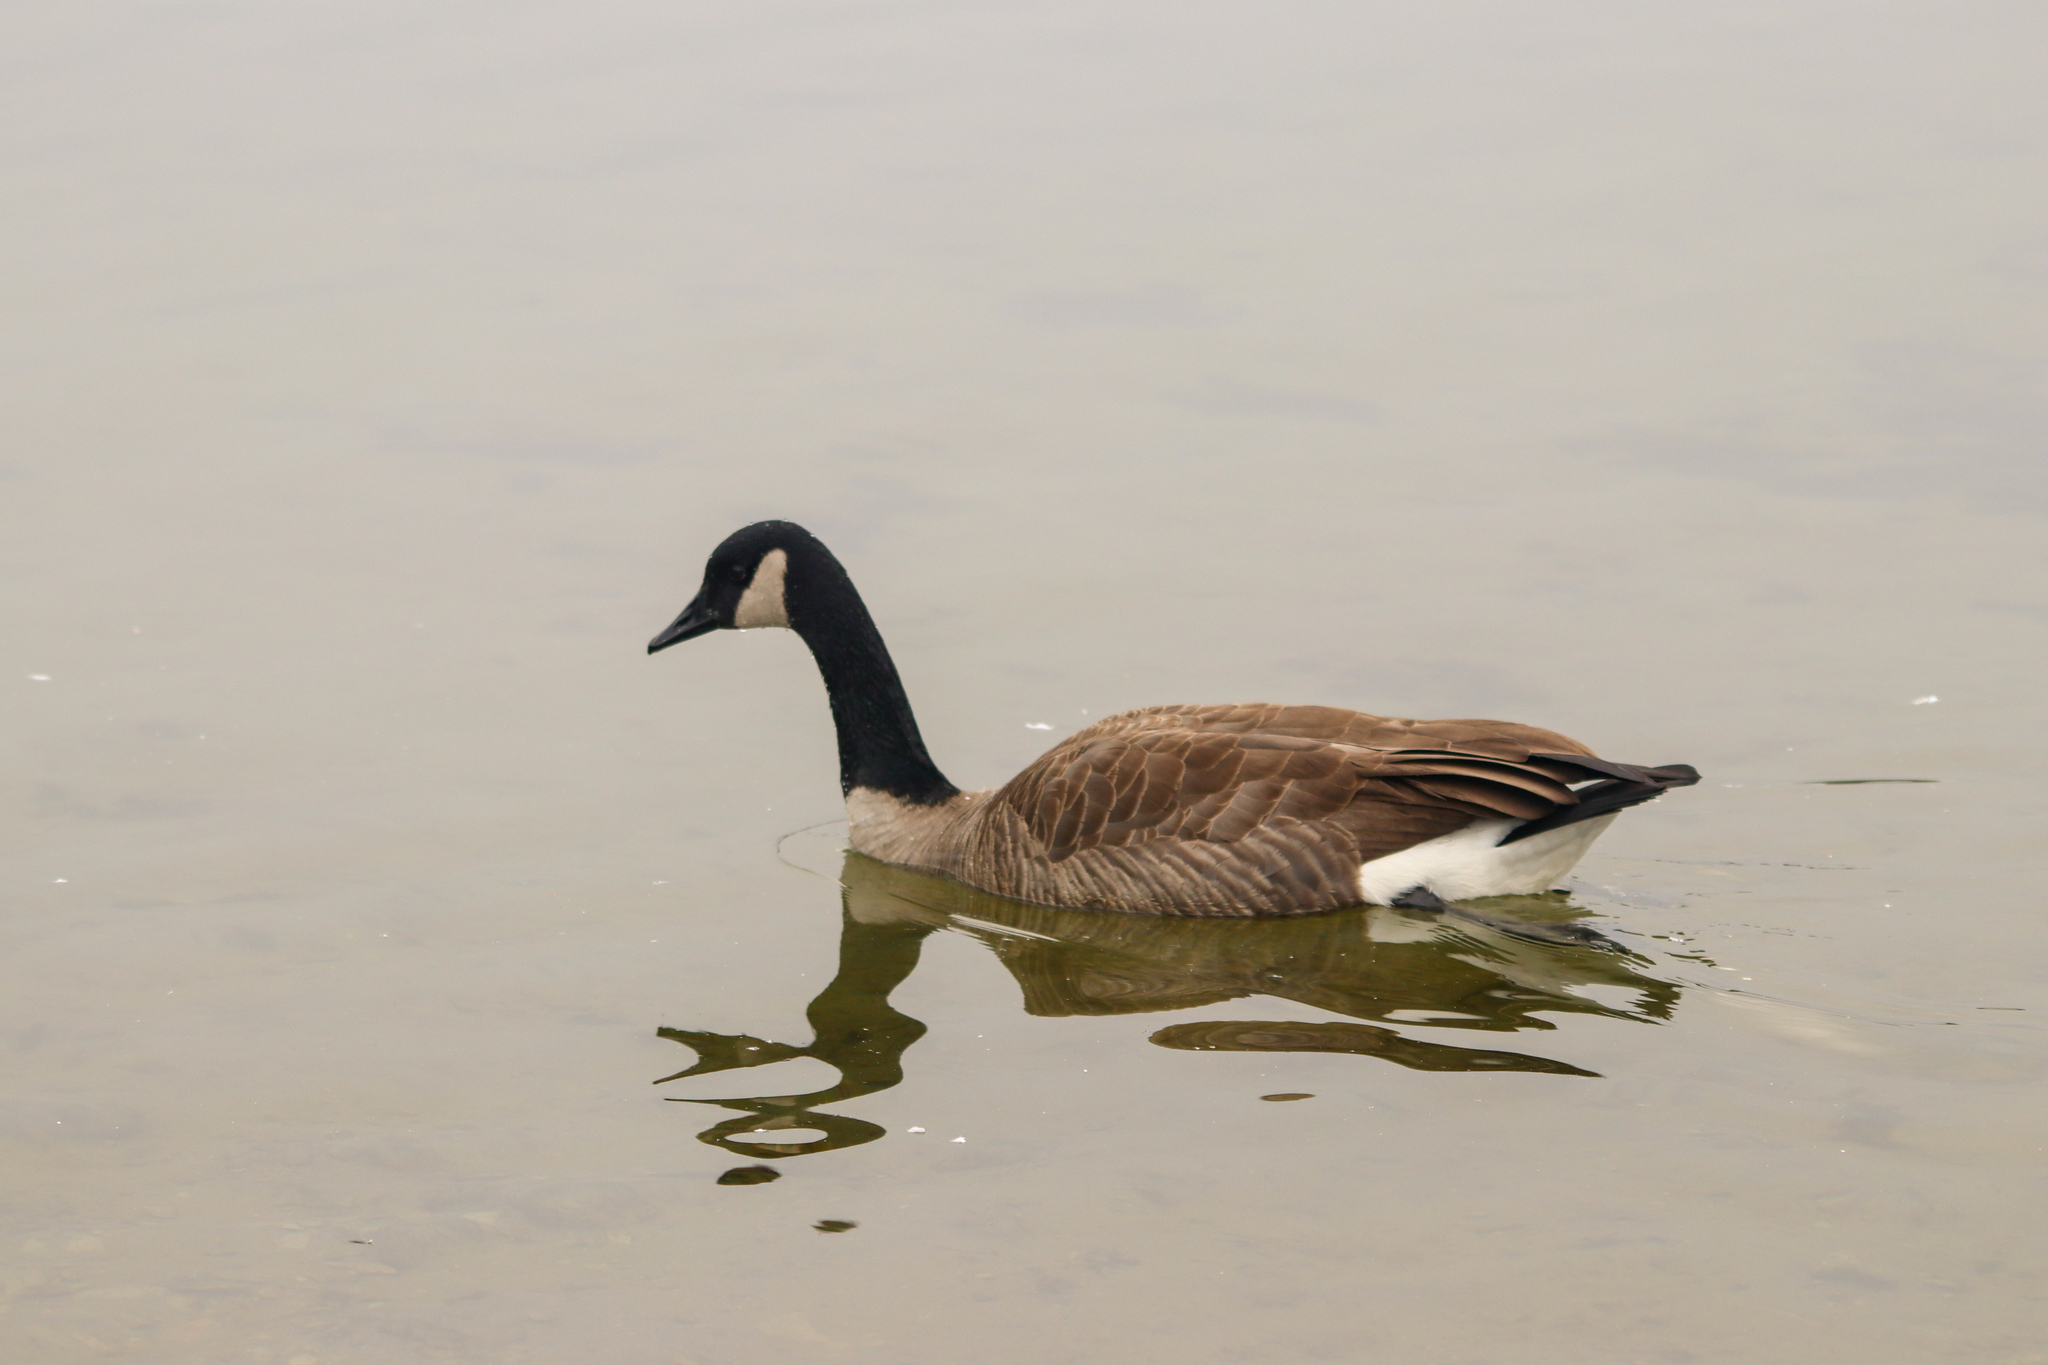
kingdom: Animalia
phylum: Chordata
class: Aves
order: Anseriformes
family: Anatidae
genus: Branta
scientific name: Branta canadensis
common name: Canada goose
